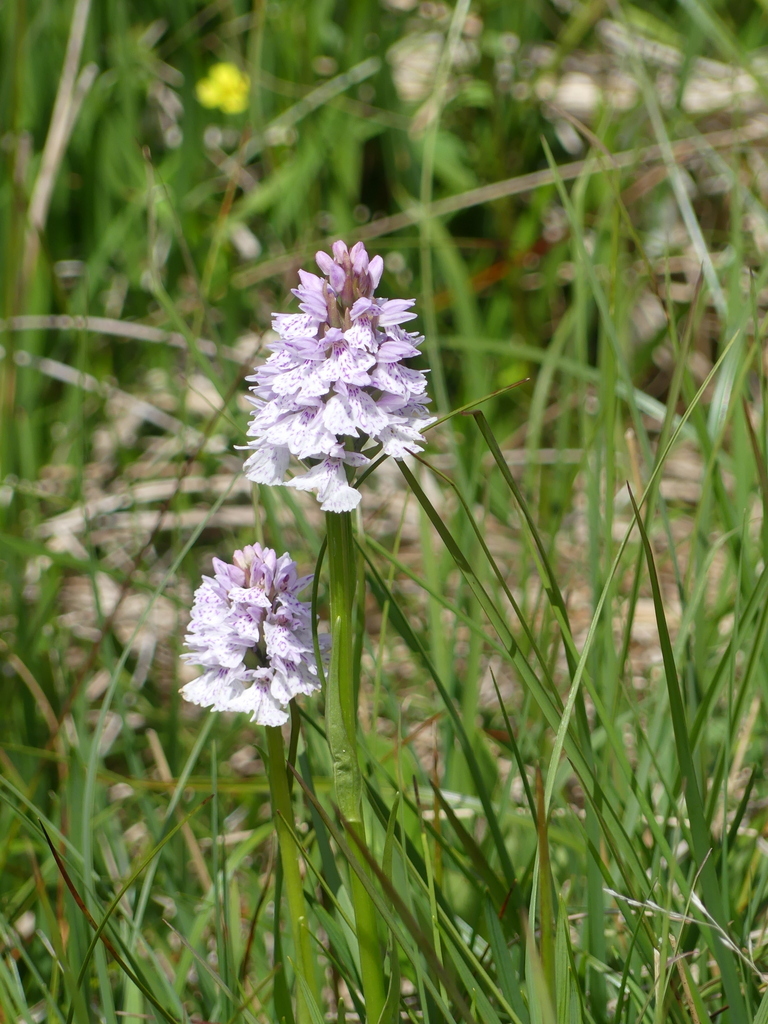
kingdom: Plantae
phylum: Tracheophyta
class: Liliopsida
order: Asparagales
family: Orchidaceae
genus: Dactylorhiza
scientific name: Dactylorhiza maculata
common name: Heath spotted-orchid
